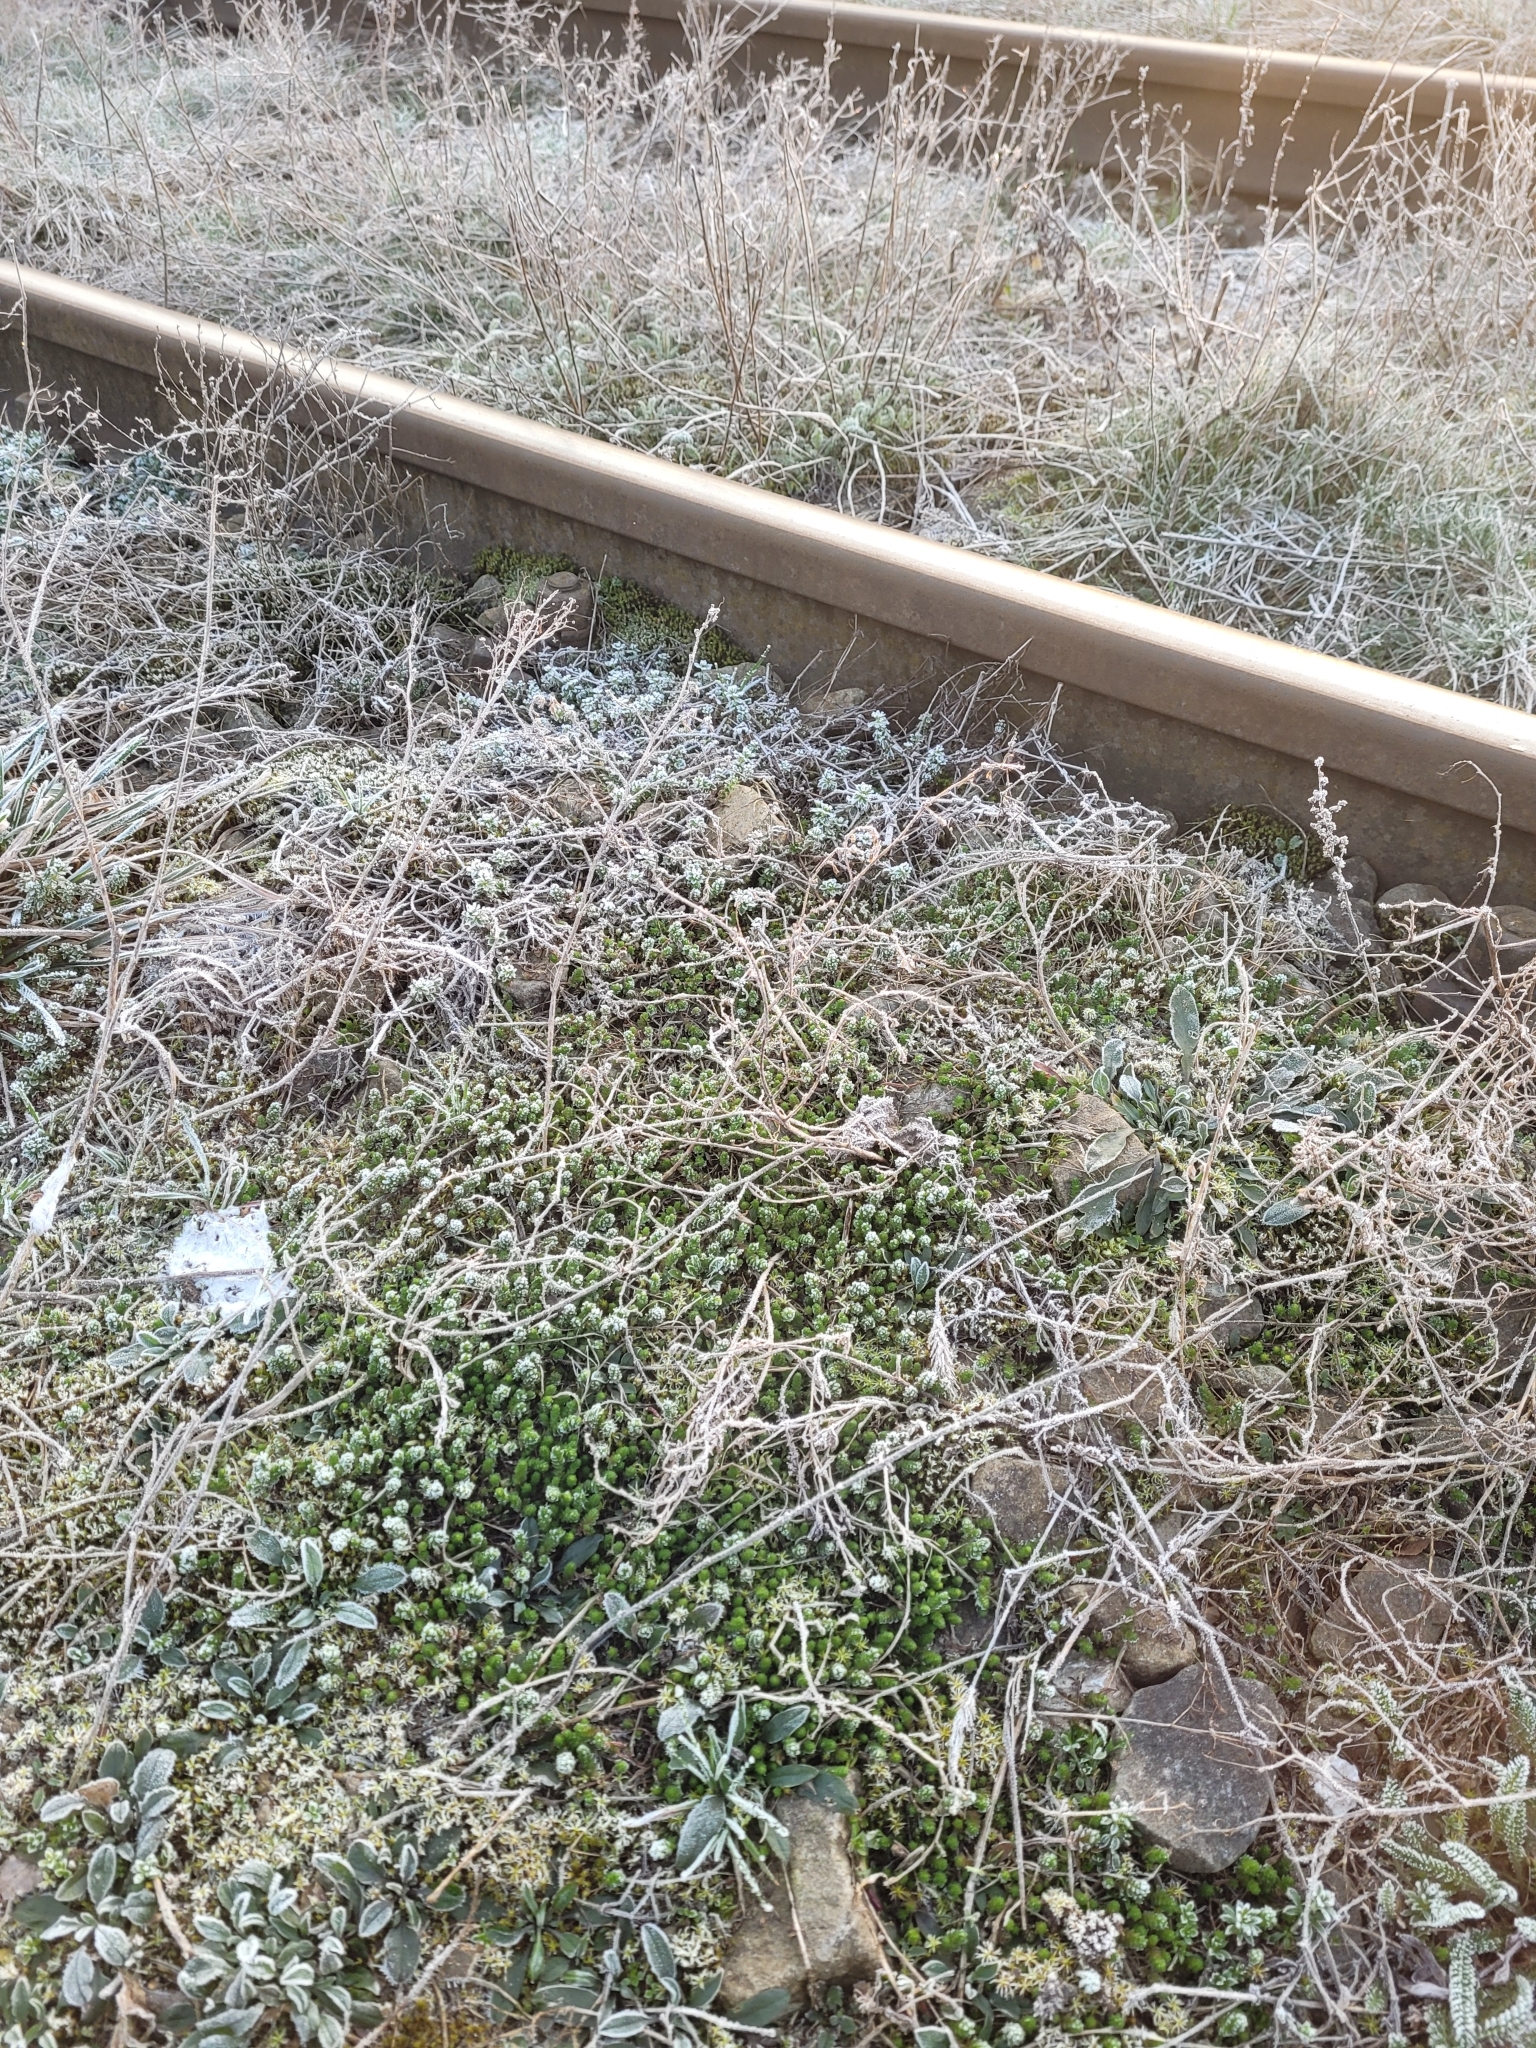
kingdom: Plantae
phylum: Tracheophyta
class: Magnoliopsida
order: Saxifragales
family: Crassulaceae
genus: Sedum
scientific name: Sedum acre
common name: Biting stonecrop
